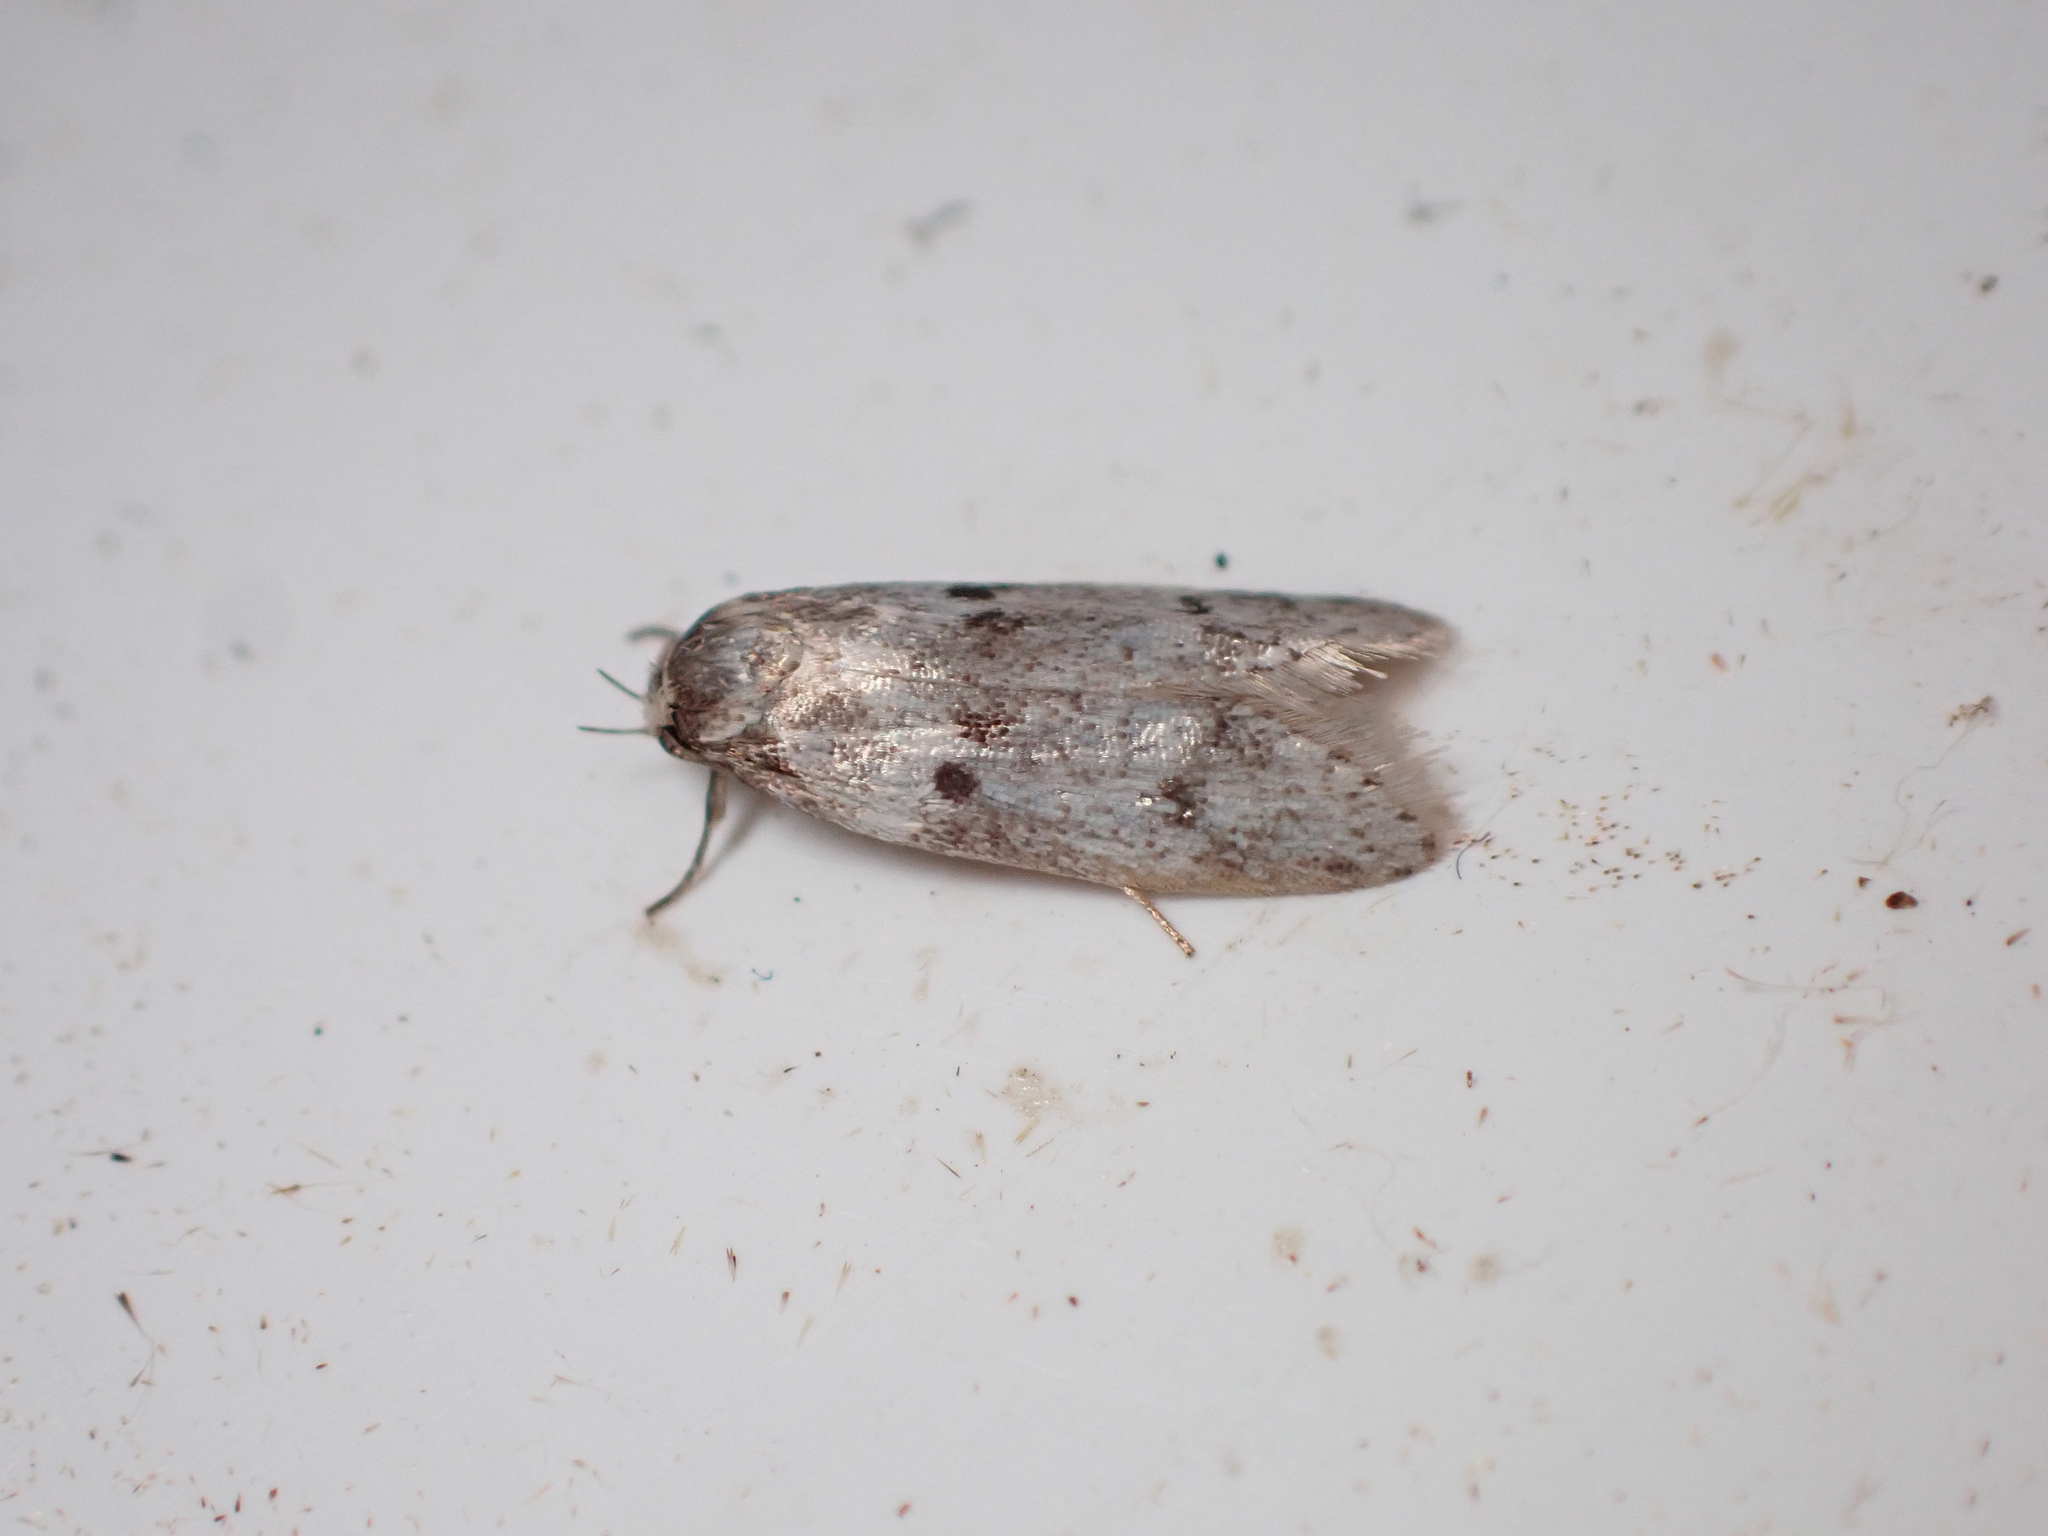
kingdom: Animalia
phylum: Arthropoda
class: Insecta
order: Lepidoptera
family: Oecophoridae
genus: Trachypepla
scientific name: Trachypepla indolescens
